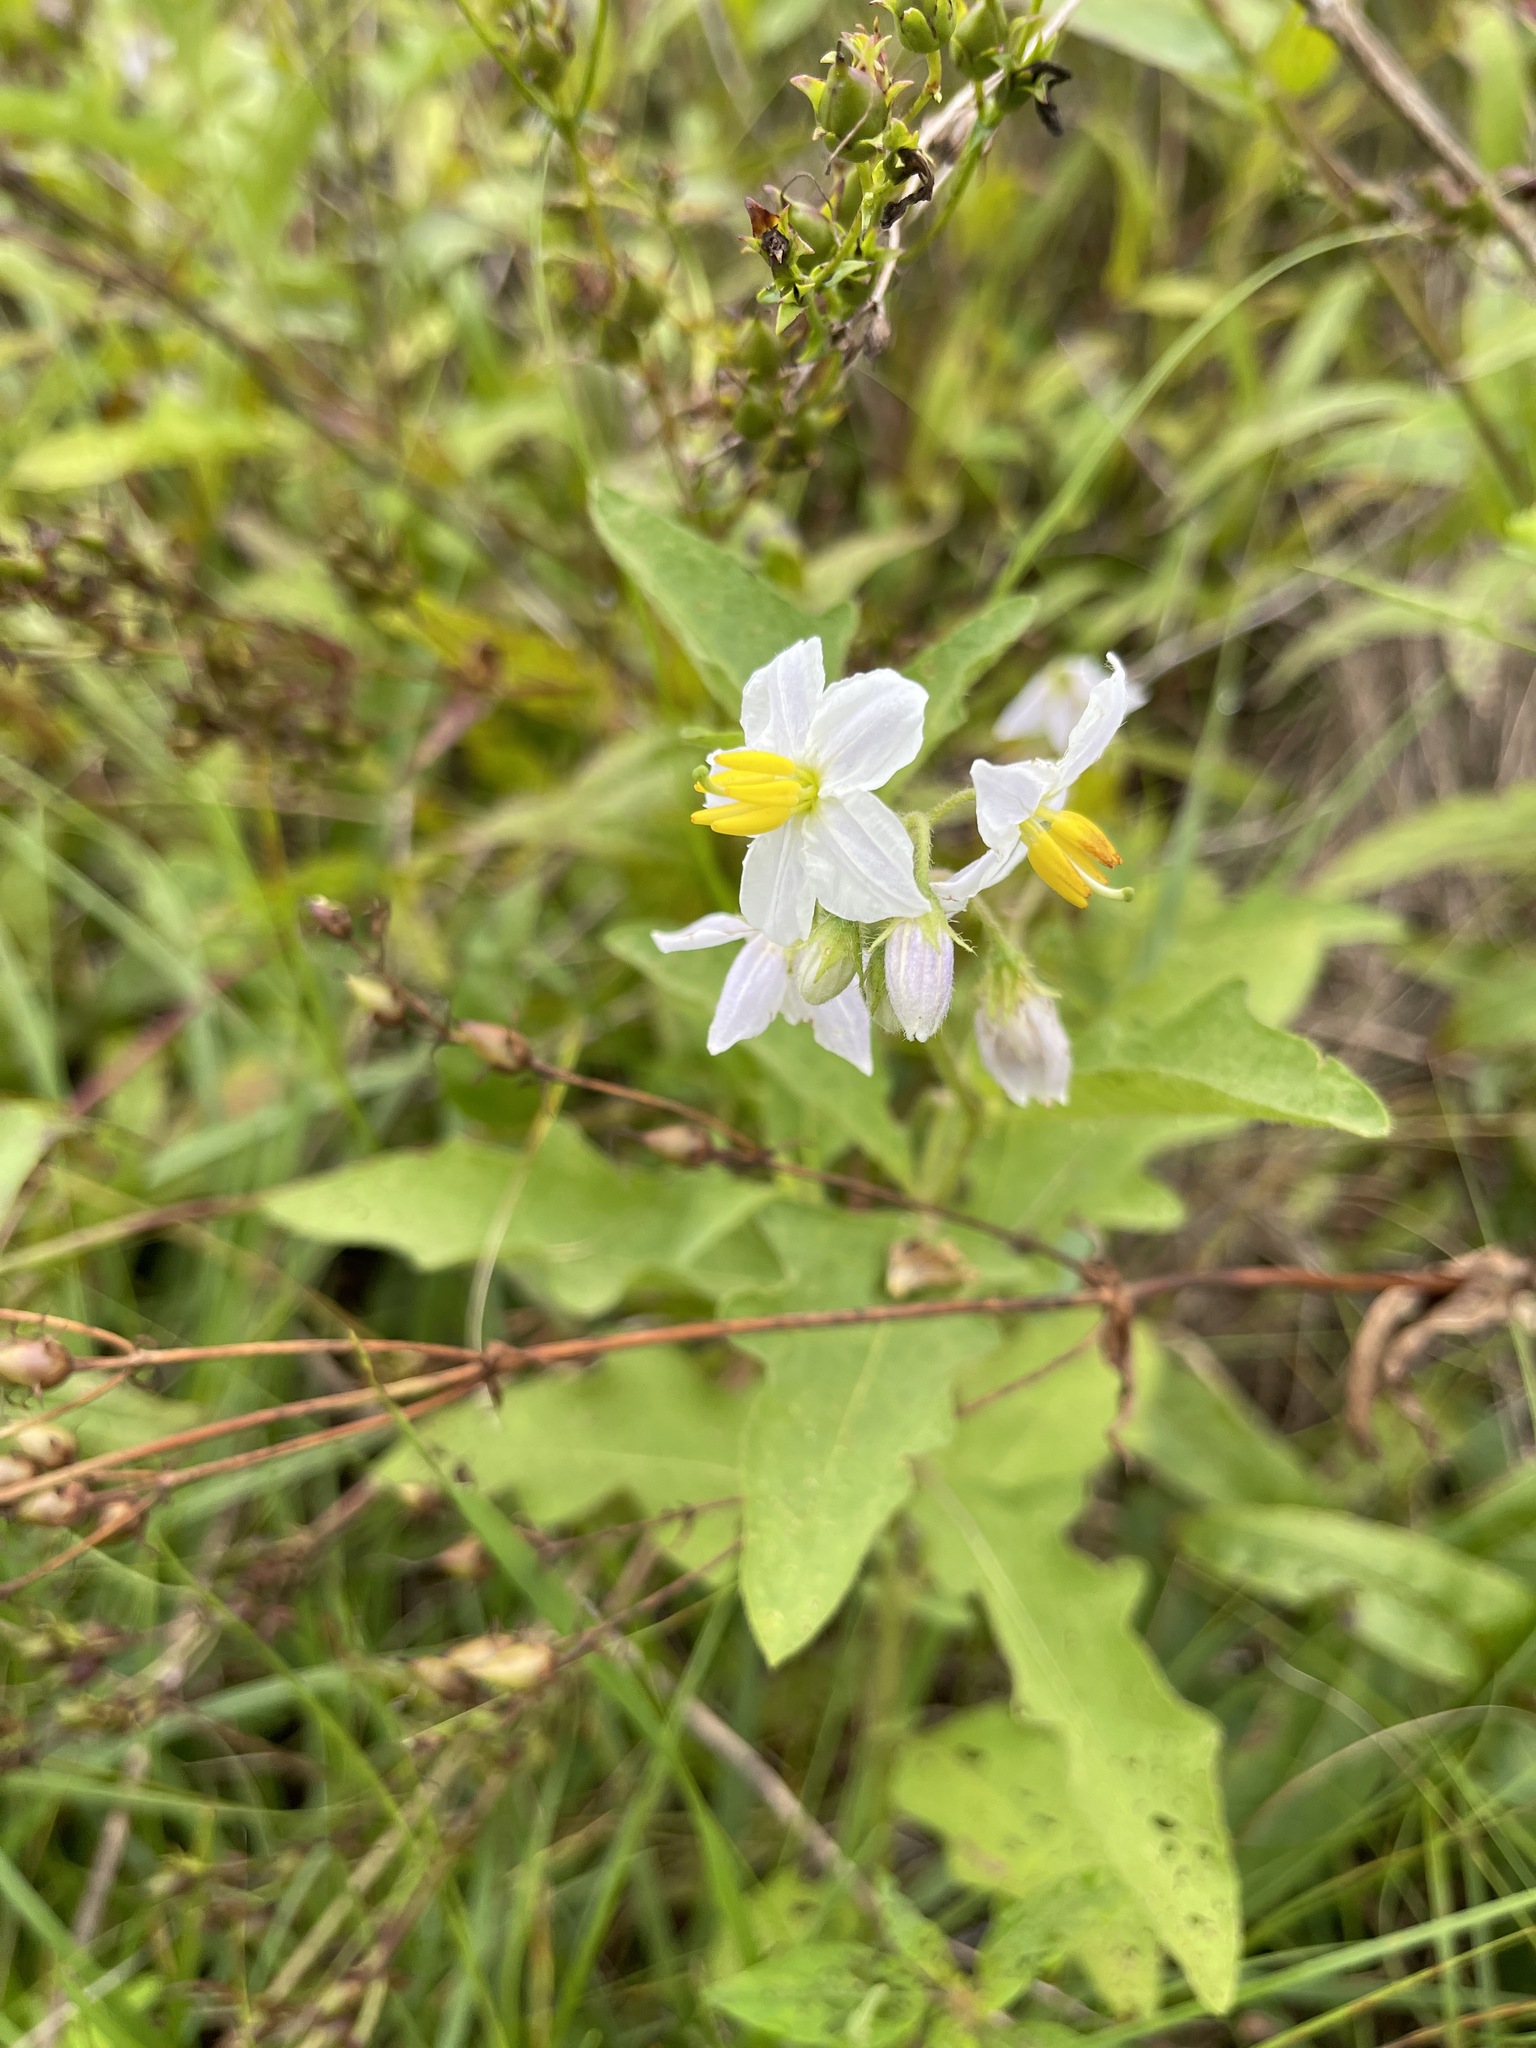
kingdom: Plantae
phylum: Tracheophyta
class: Magnoliopsida
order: Solanales
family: Solanaceae
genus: Solanum
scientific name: Solanum carolinense
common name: Horse-nettle
